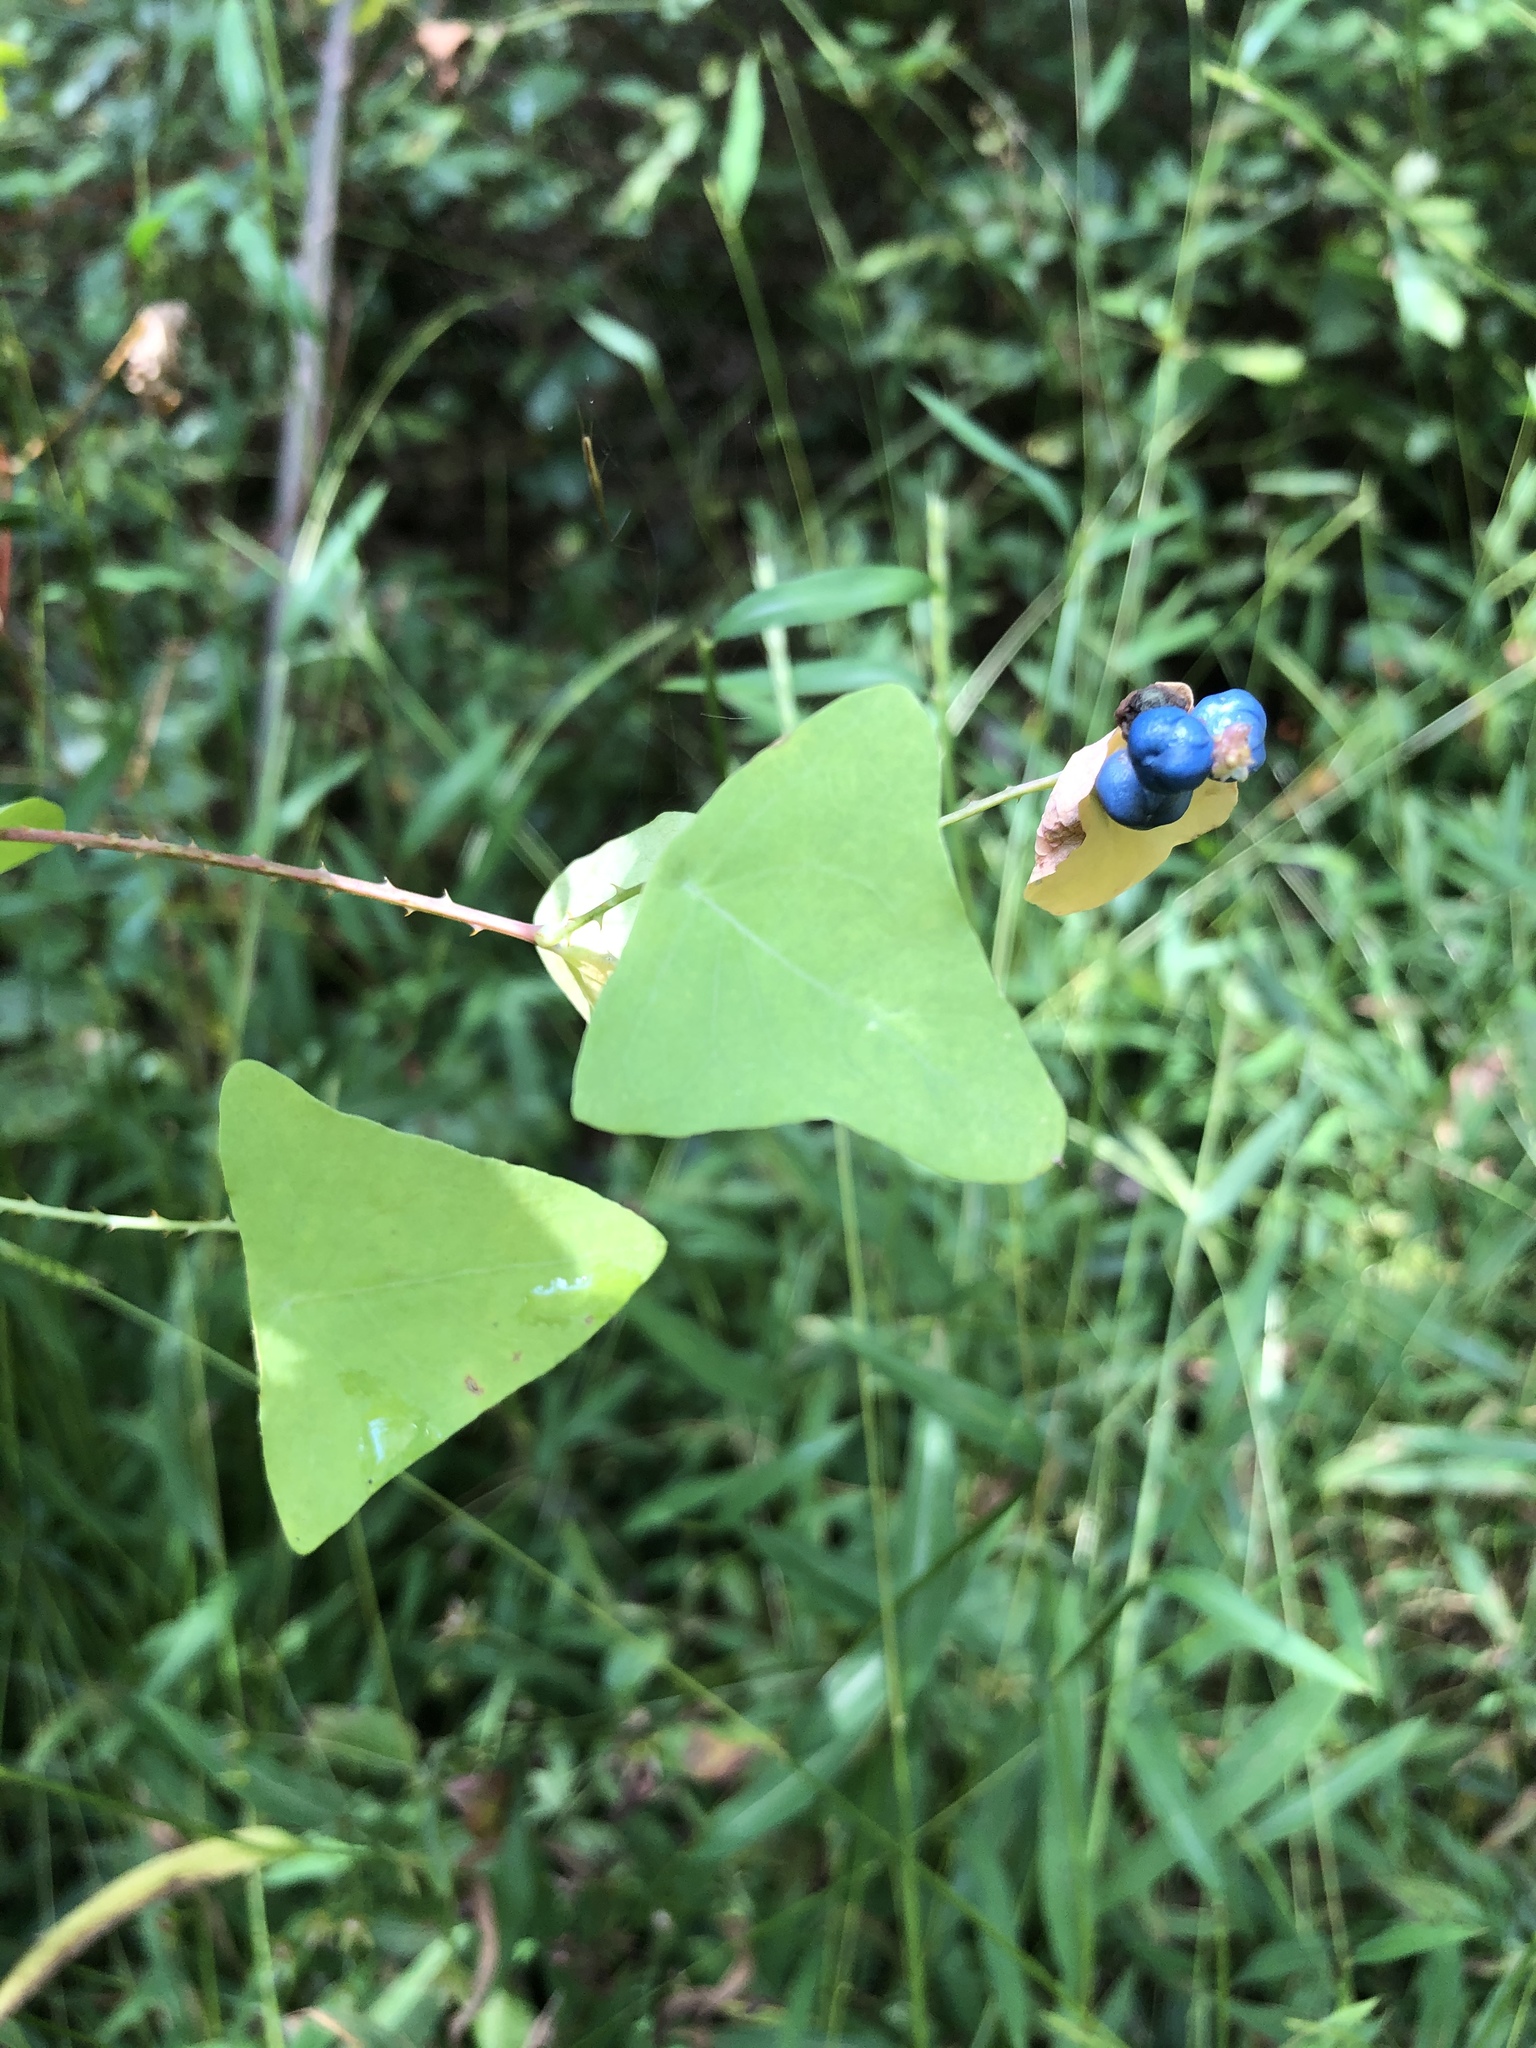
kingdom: Plantae
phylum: Tracheophyta
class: Magnoliopsida
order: Caryophyllales
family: Polygonaceae
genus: Persicaria
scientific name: Persicaria perfoliata
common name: Asiatic tearthumb
